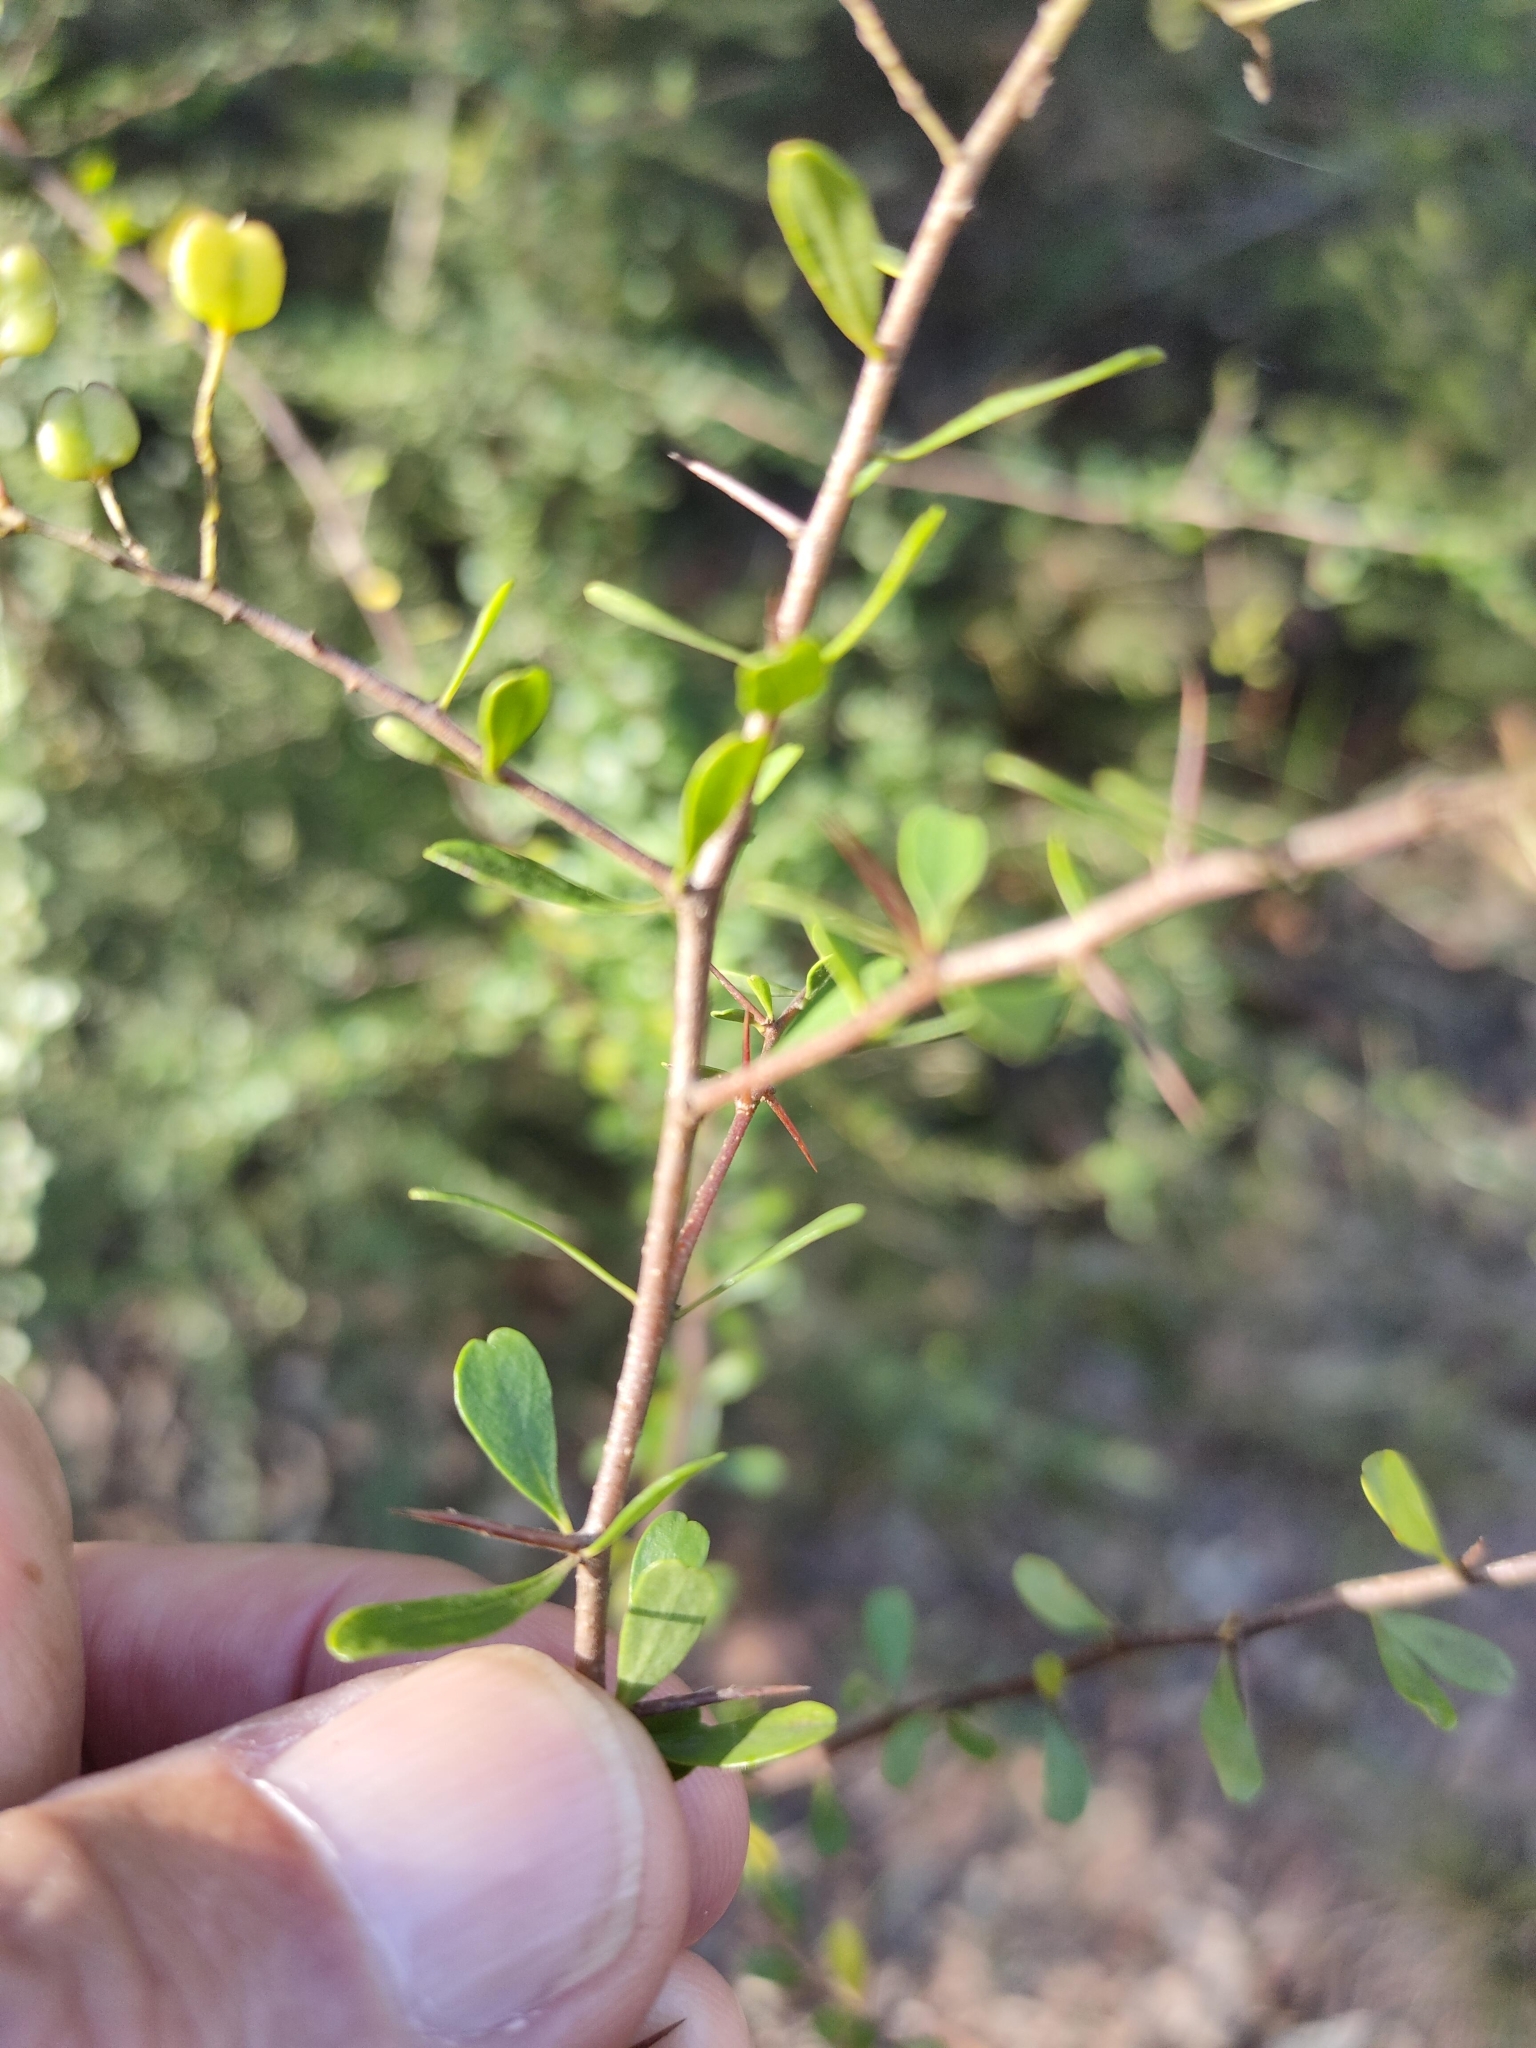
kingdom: Plantae
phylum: Tracheophyta
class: Magnoliopsida
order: Apiales
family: Pittosporaceae
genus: Bursaria
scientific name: Bursaria spinosa
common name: Australian blackthorn
